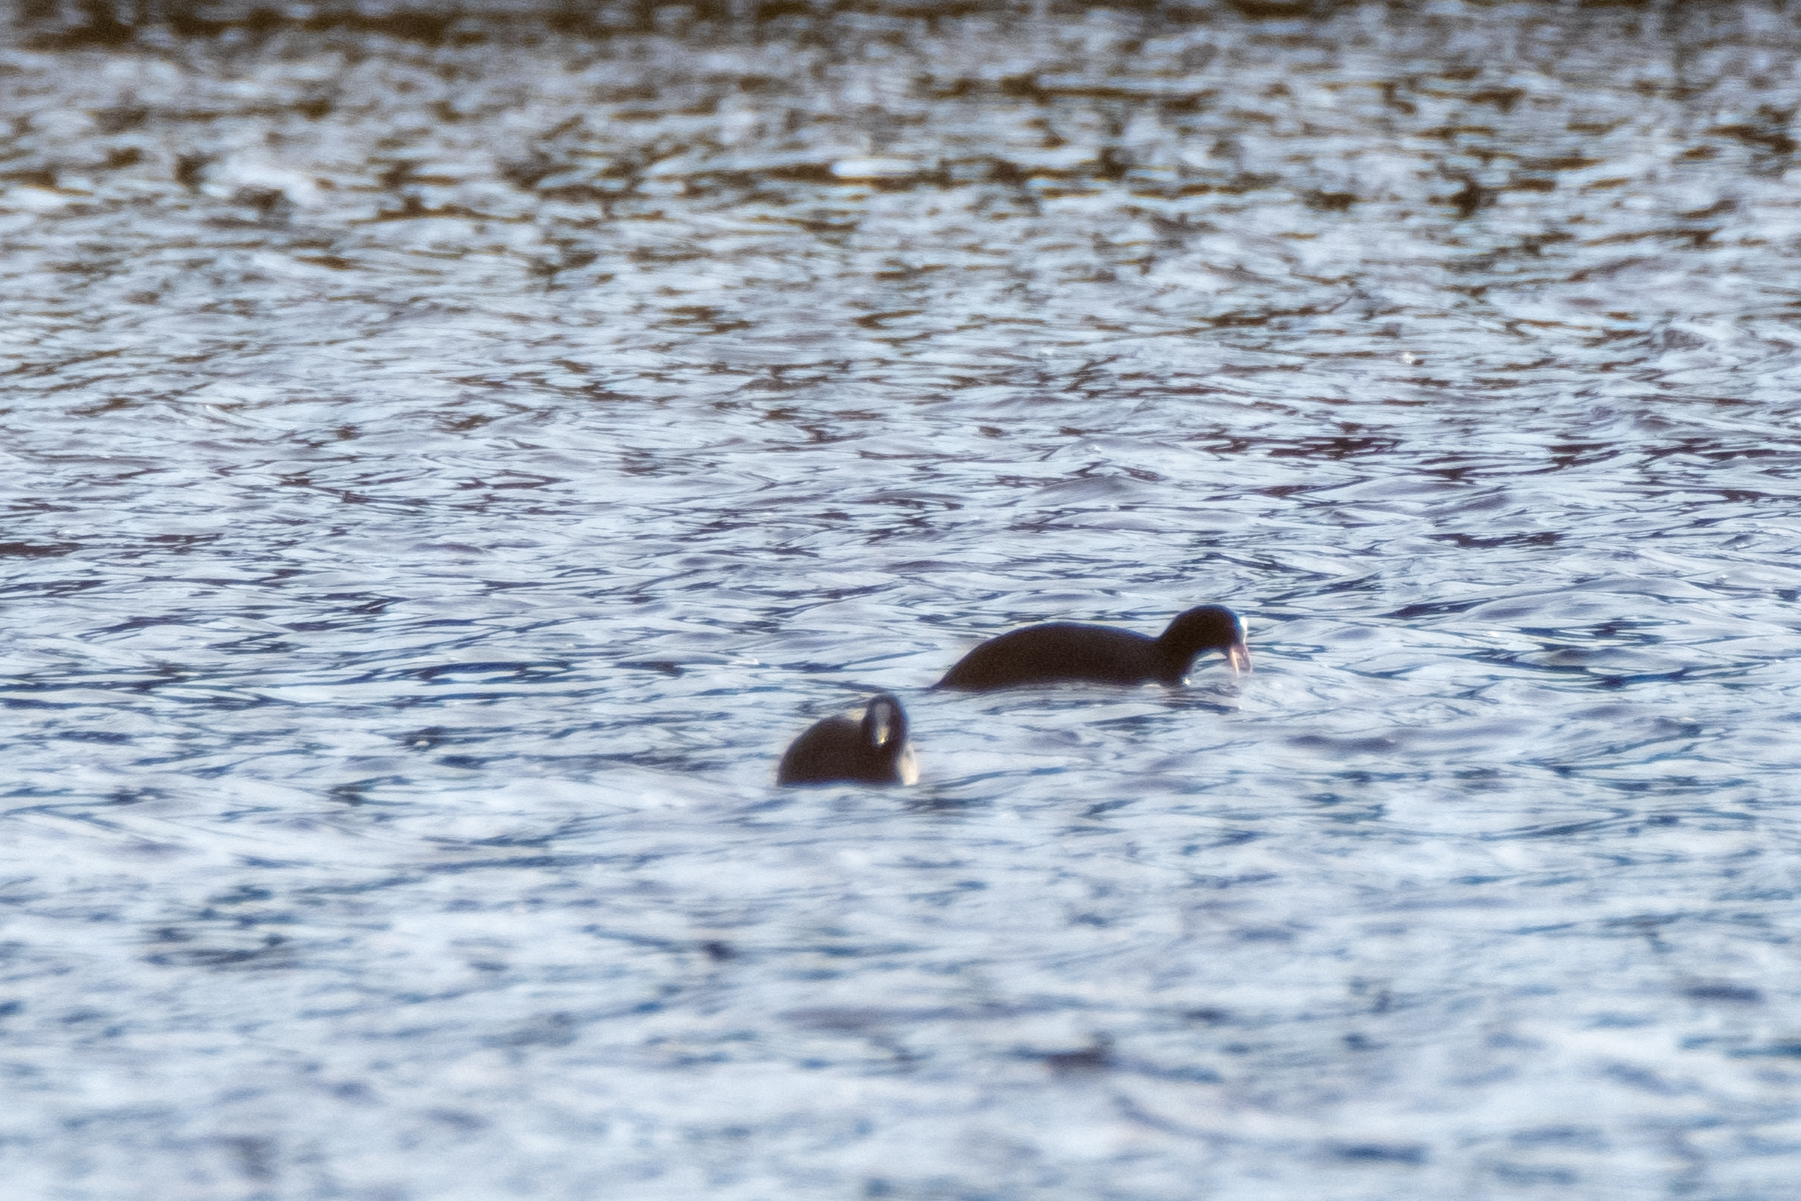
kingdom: Animalia
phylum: Chordata
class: Aves
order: Gruiformes
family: Rallidae
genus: Fulica
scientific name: Fulica atra
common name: Eurasian coot
